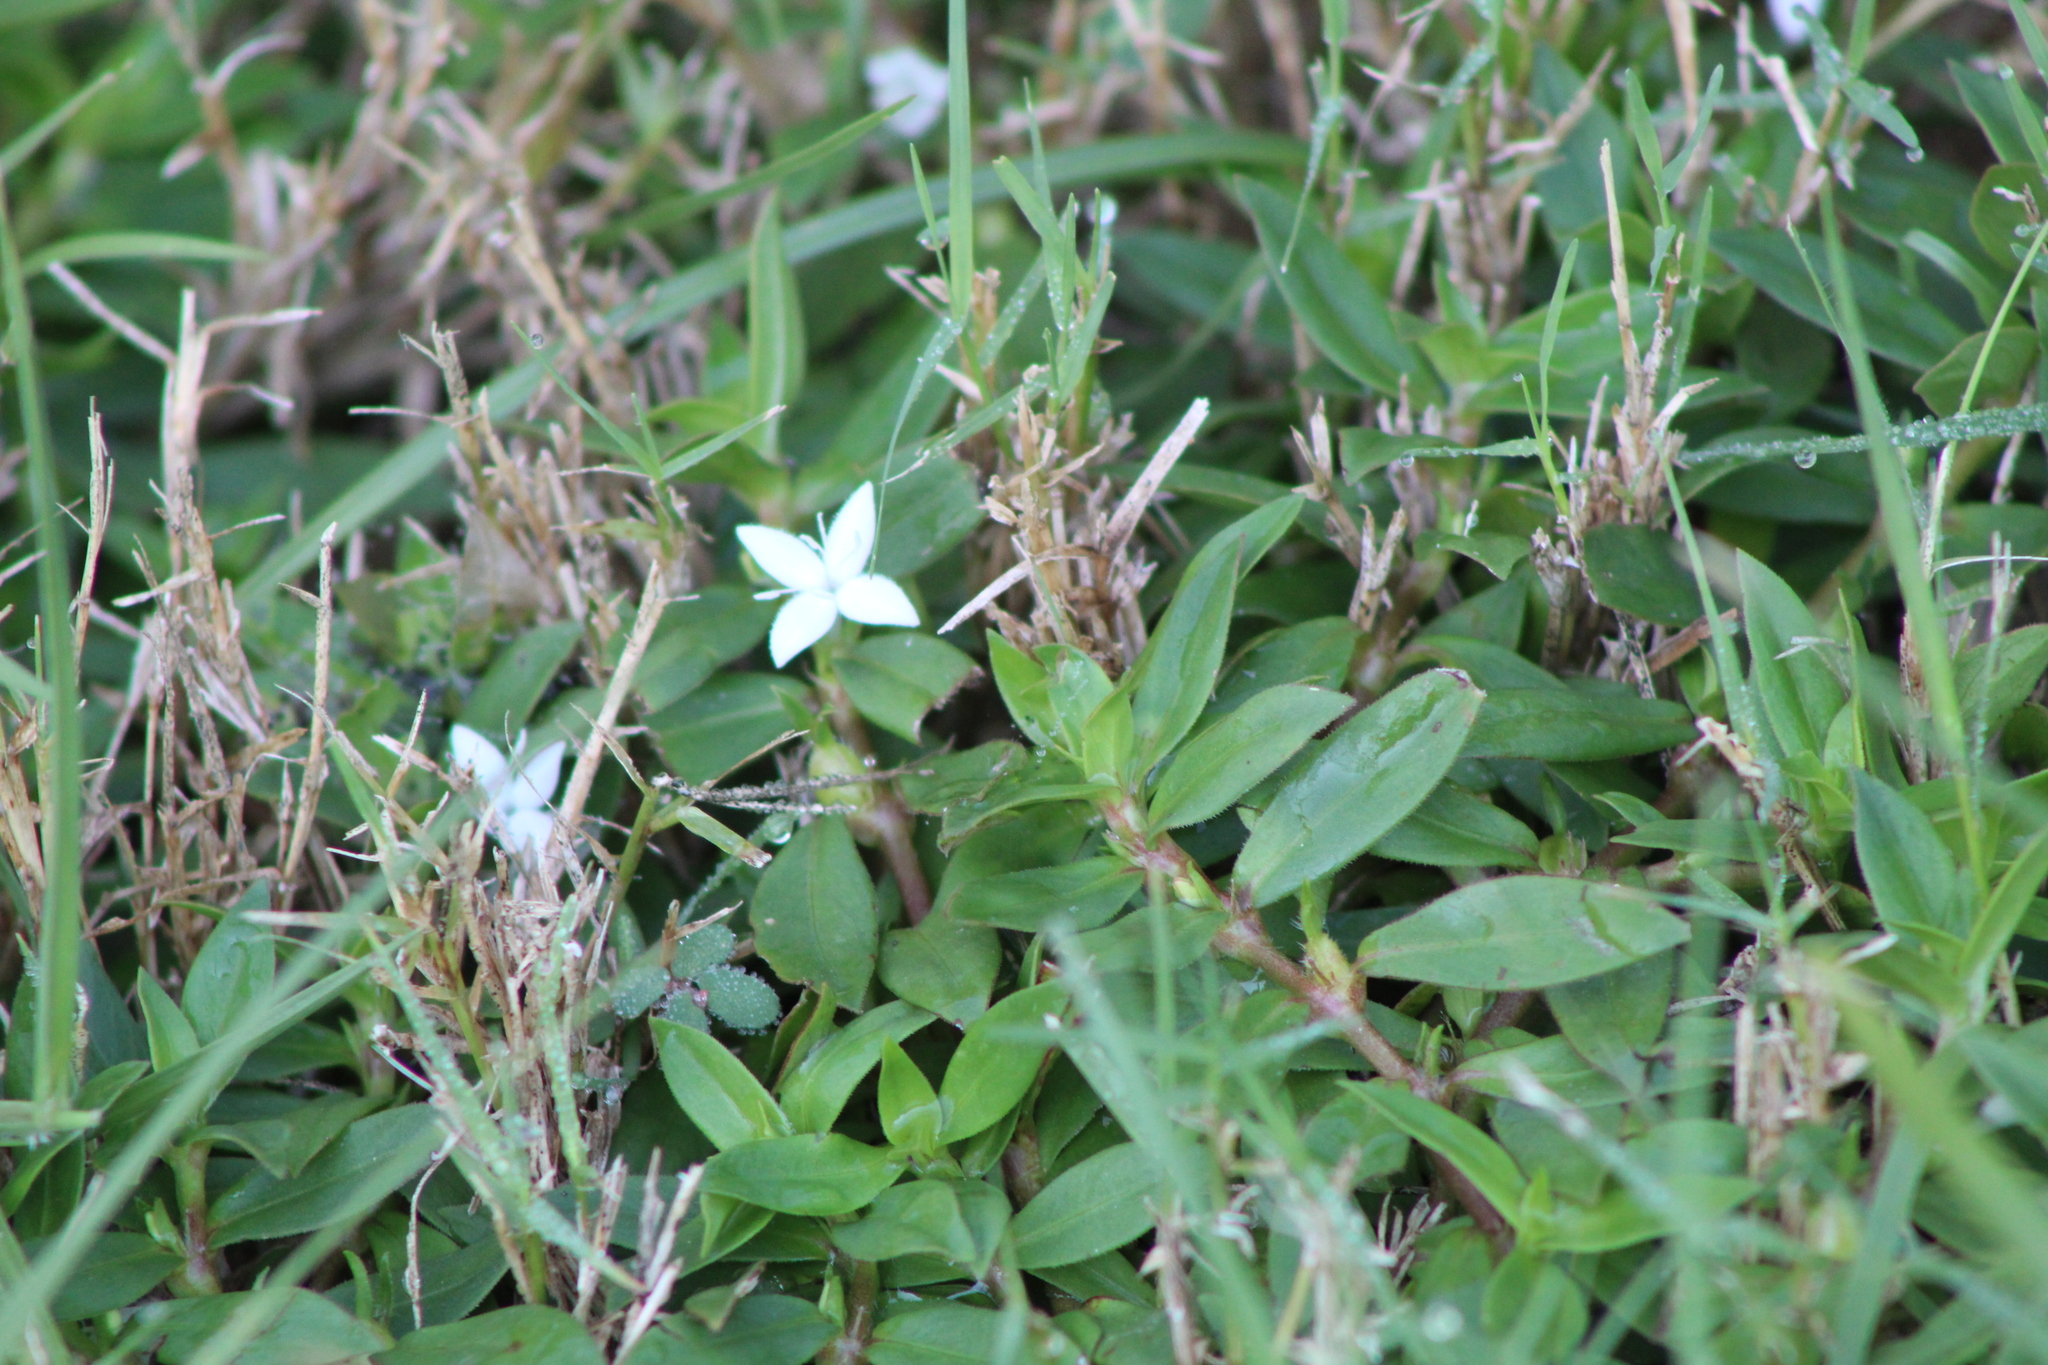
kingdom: Plantae
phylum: Tracheophyta
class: Magnoliopsida
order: Gentianales
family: Rubiaceae
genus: Diodia
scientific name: Diodia virginiana
